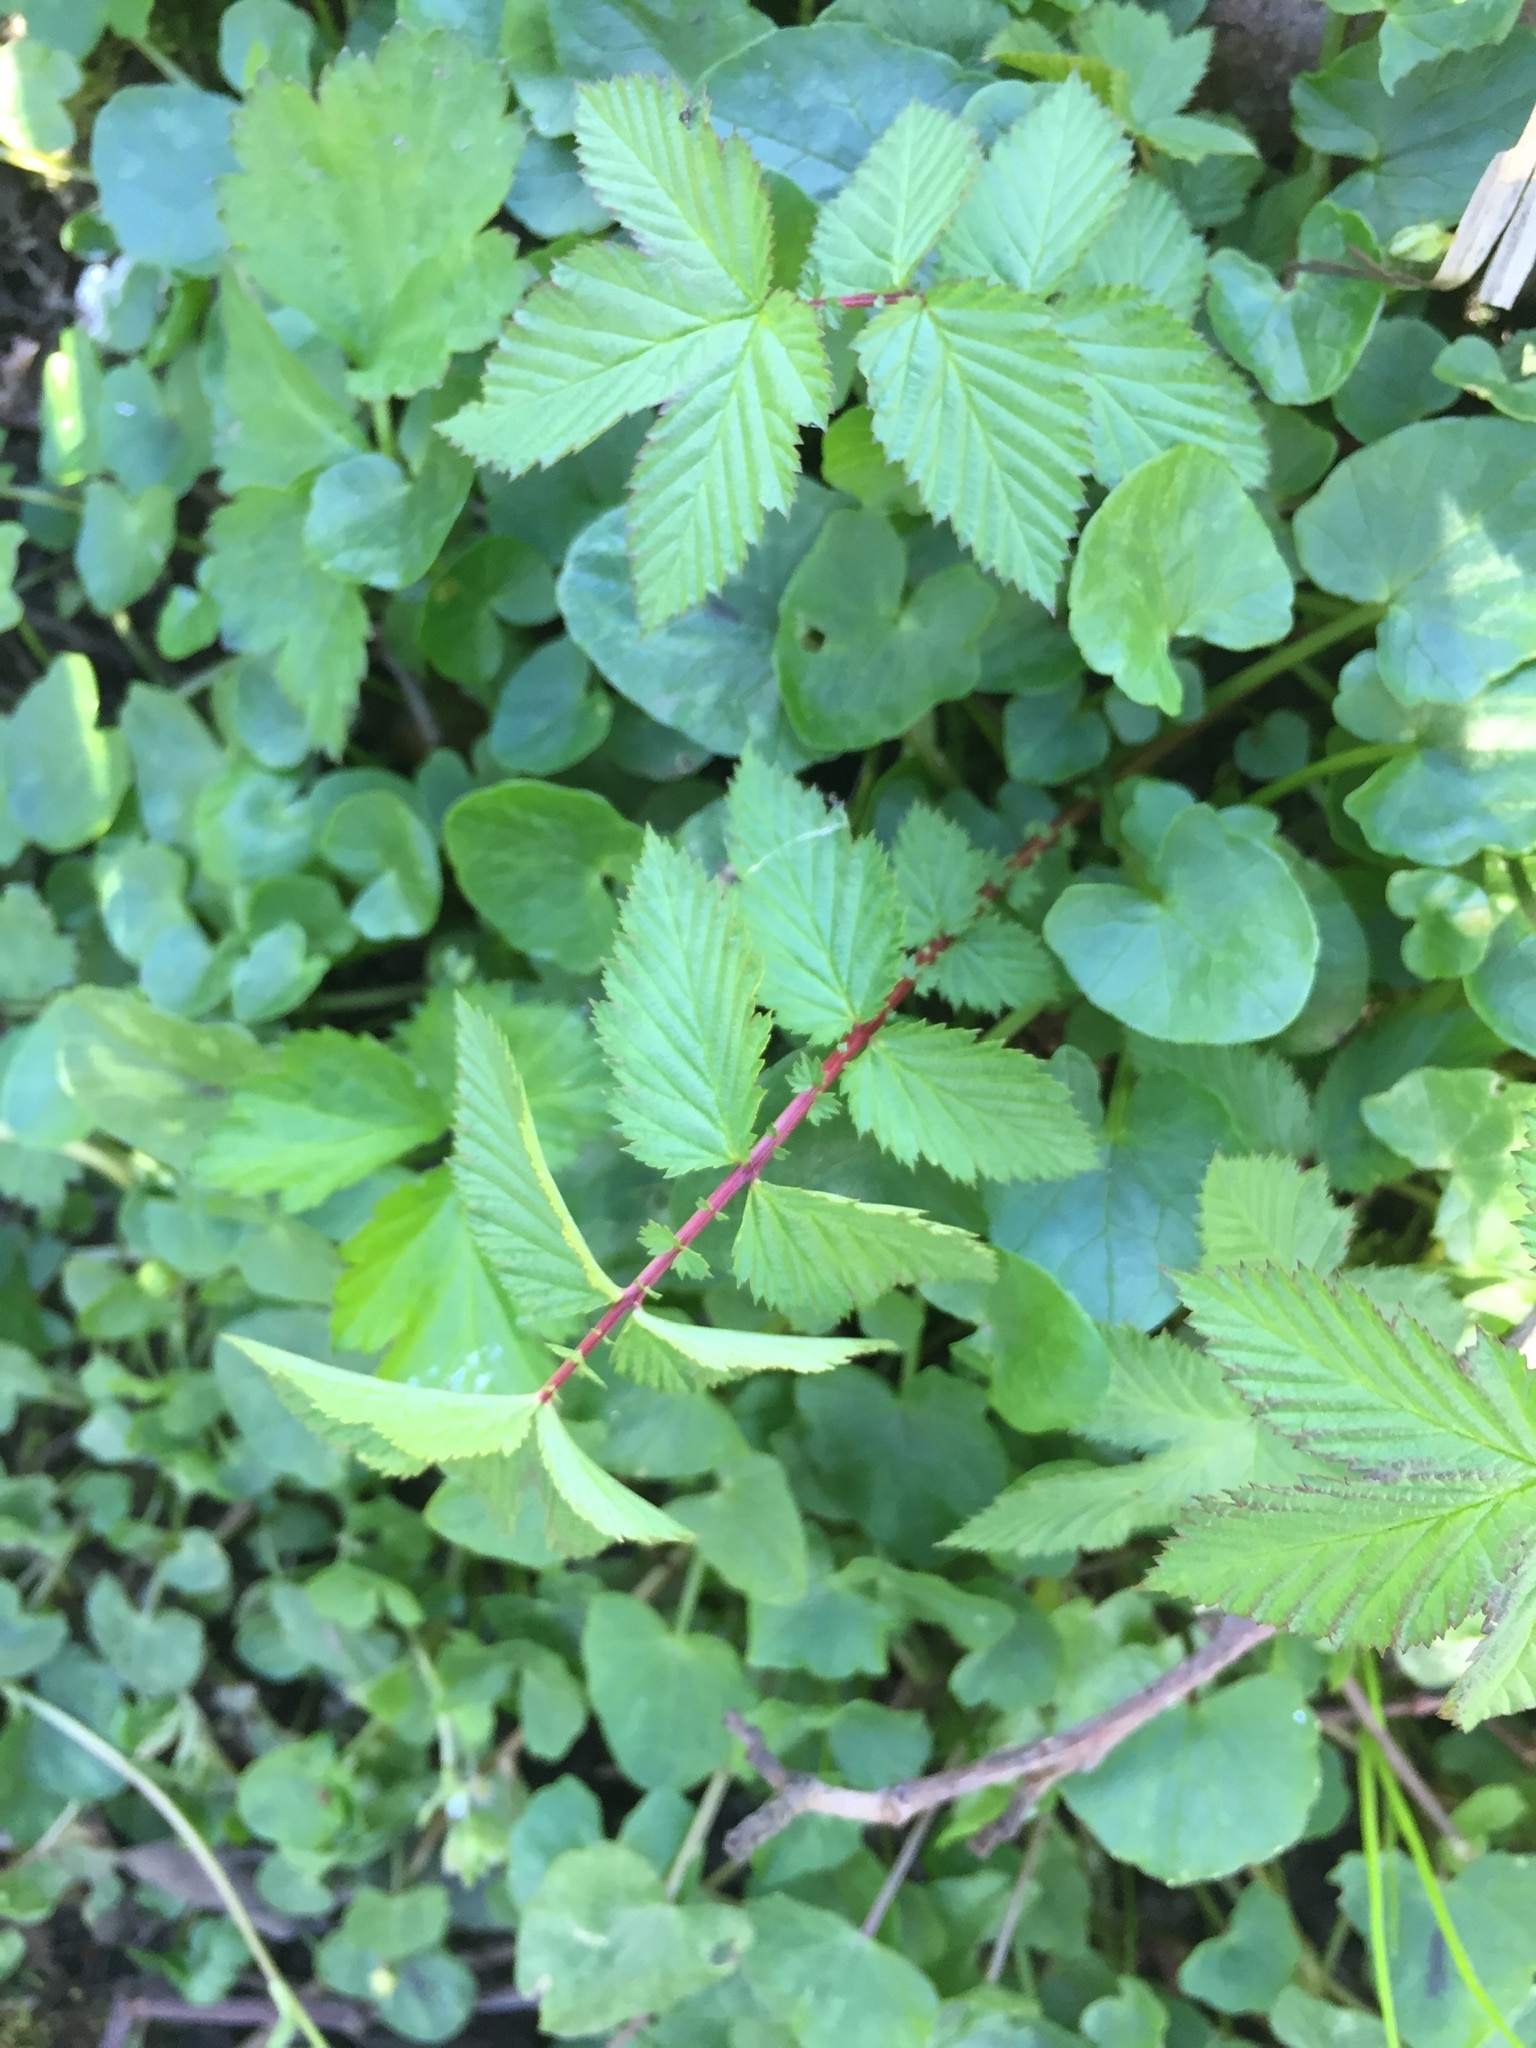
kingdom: Plantae
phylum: Tracheophyta
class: Magnoliopsida
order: Rosales
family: Rosaceae
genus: Filipendula
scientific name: Filipendula ulmaria
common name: Meadowsweet
